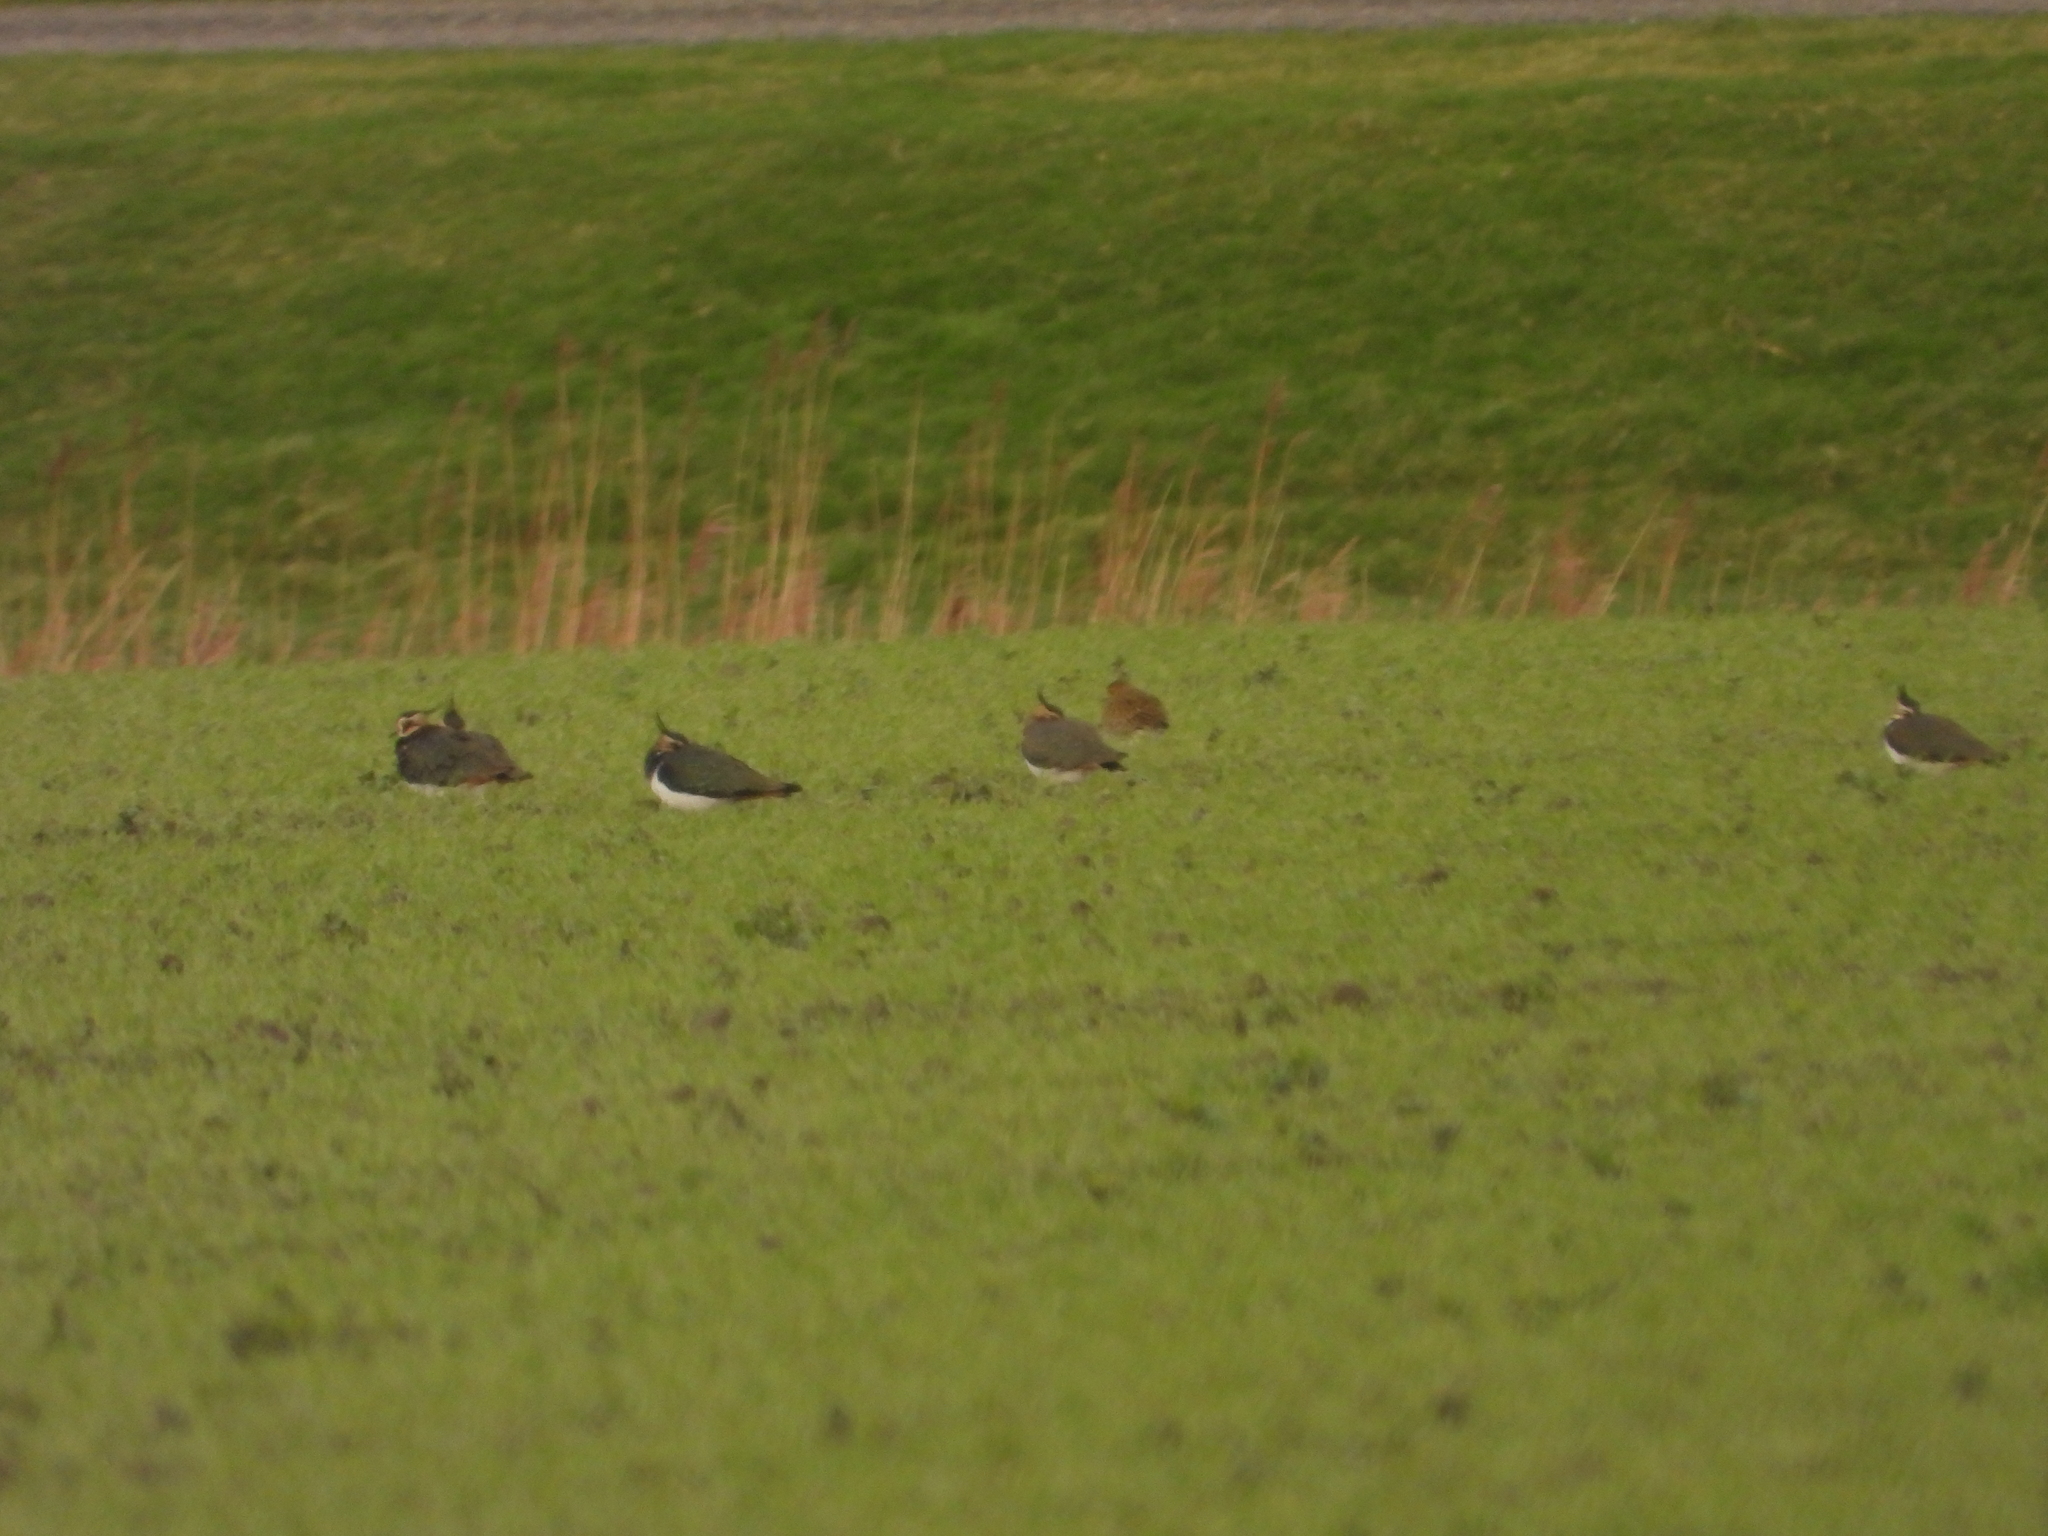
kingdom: Animalia
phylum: Chordata
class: Aves
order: Charadriiformes
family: Charadriidae
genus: Vanellus
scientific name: Vanellus vanellus
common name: Northern lapwing
